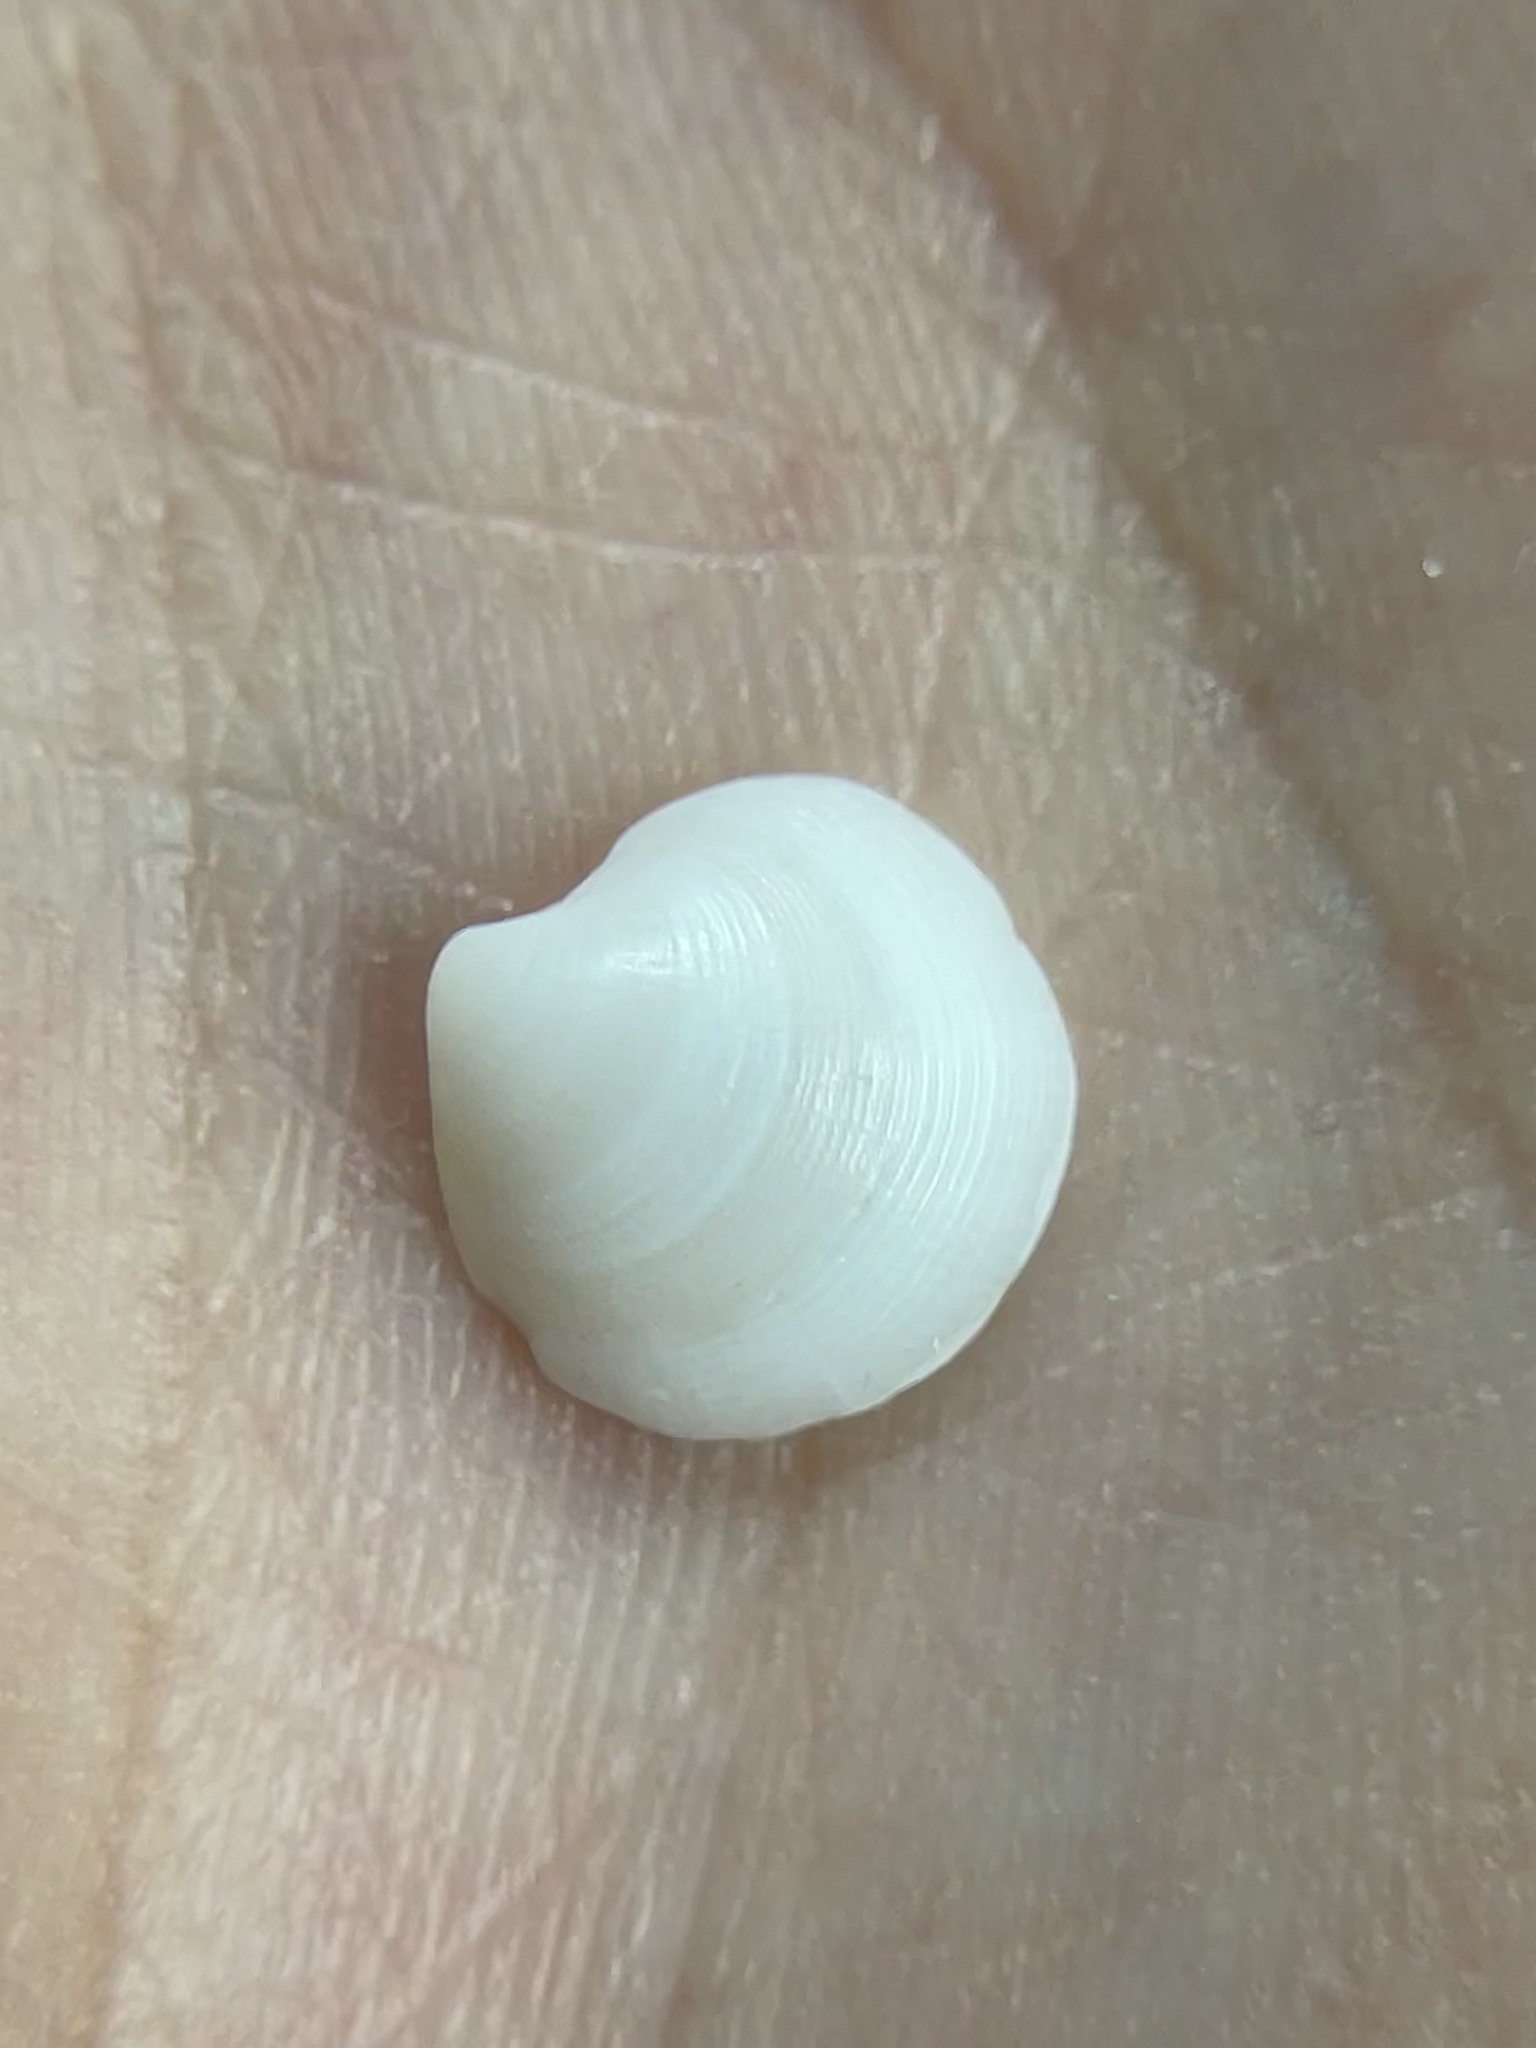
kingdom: Animalia
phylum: Mollusca
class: Bivalvia
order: Lucinida
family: Lucinidae
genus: Callucina
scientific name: Callucina keenae
